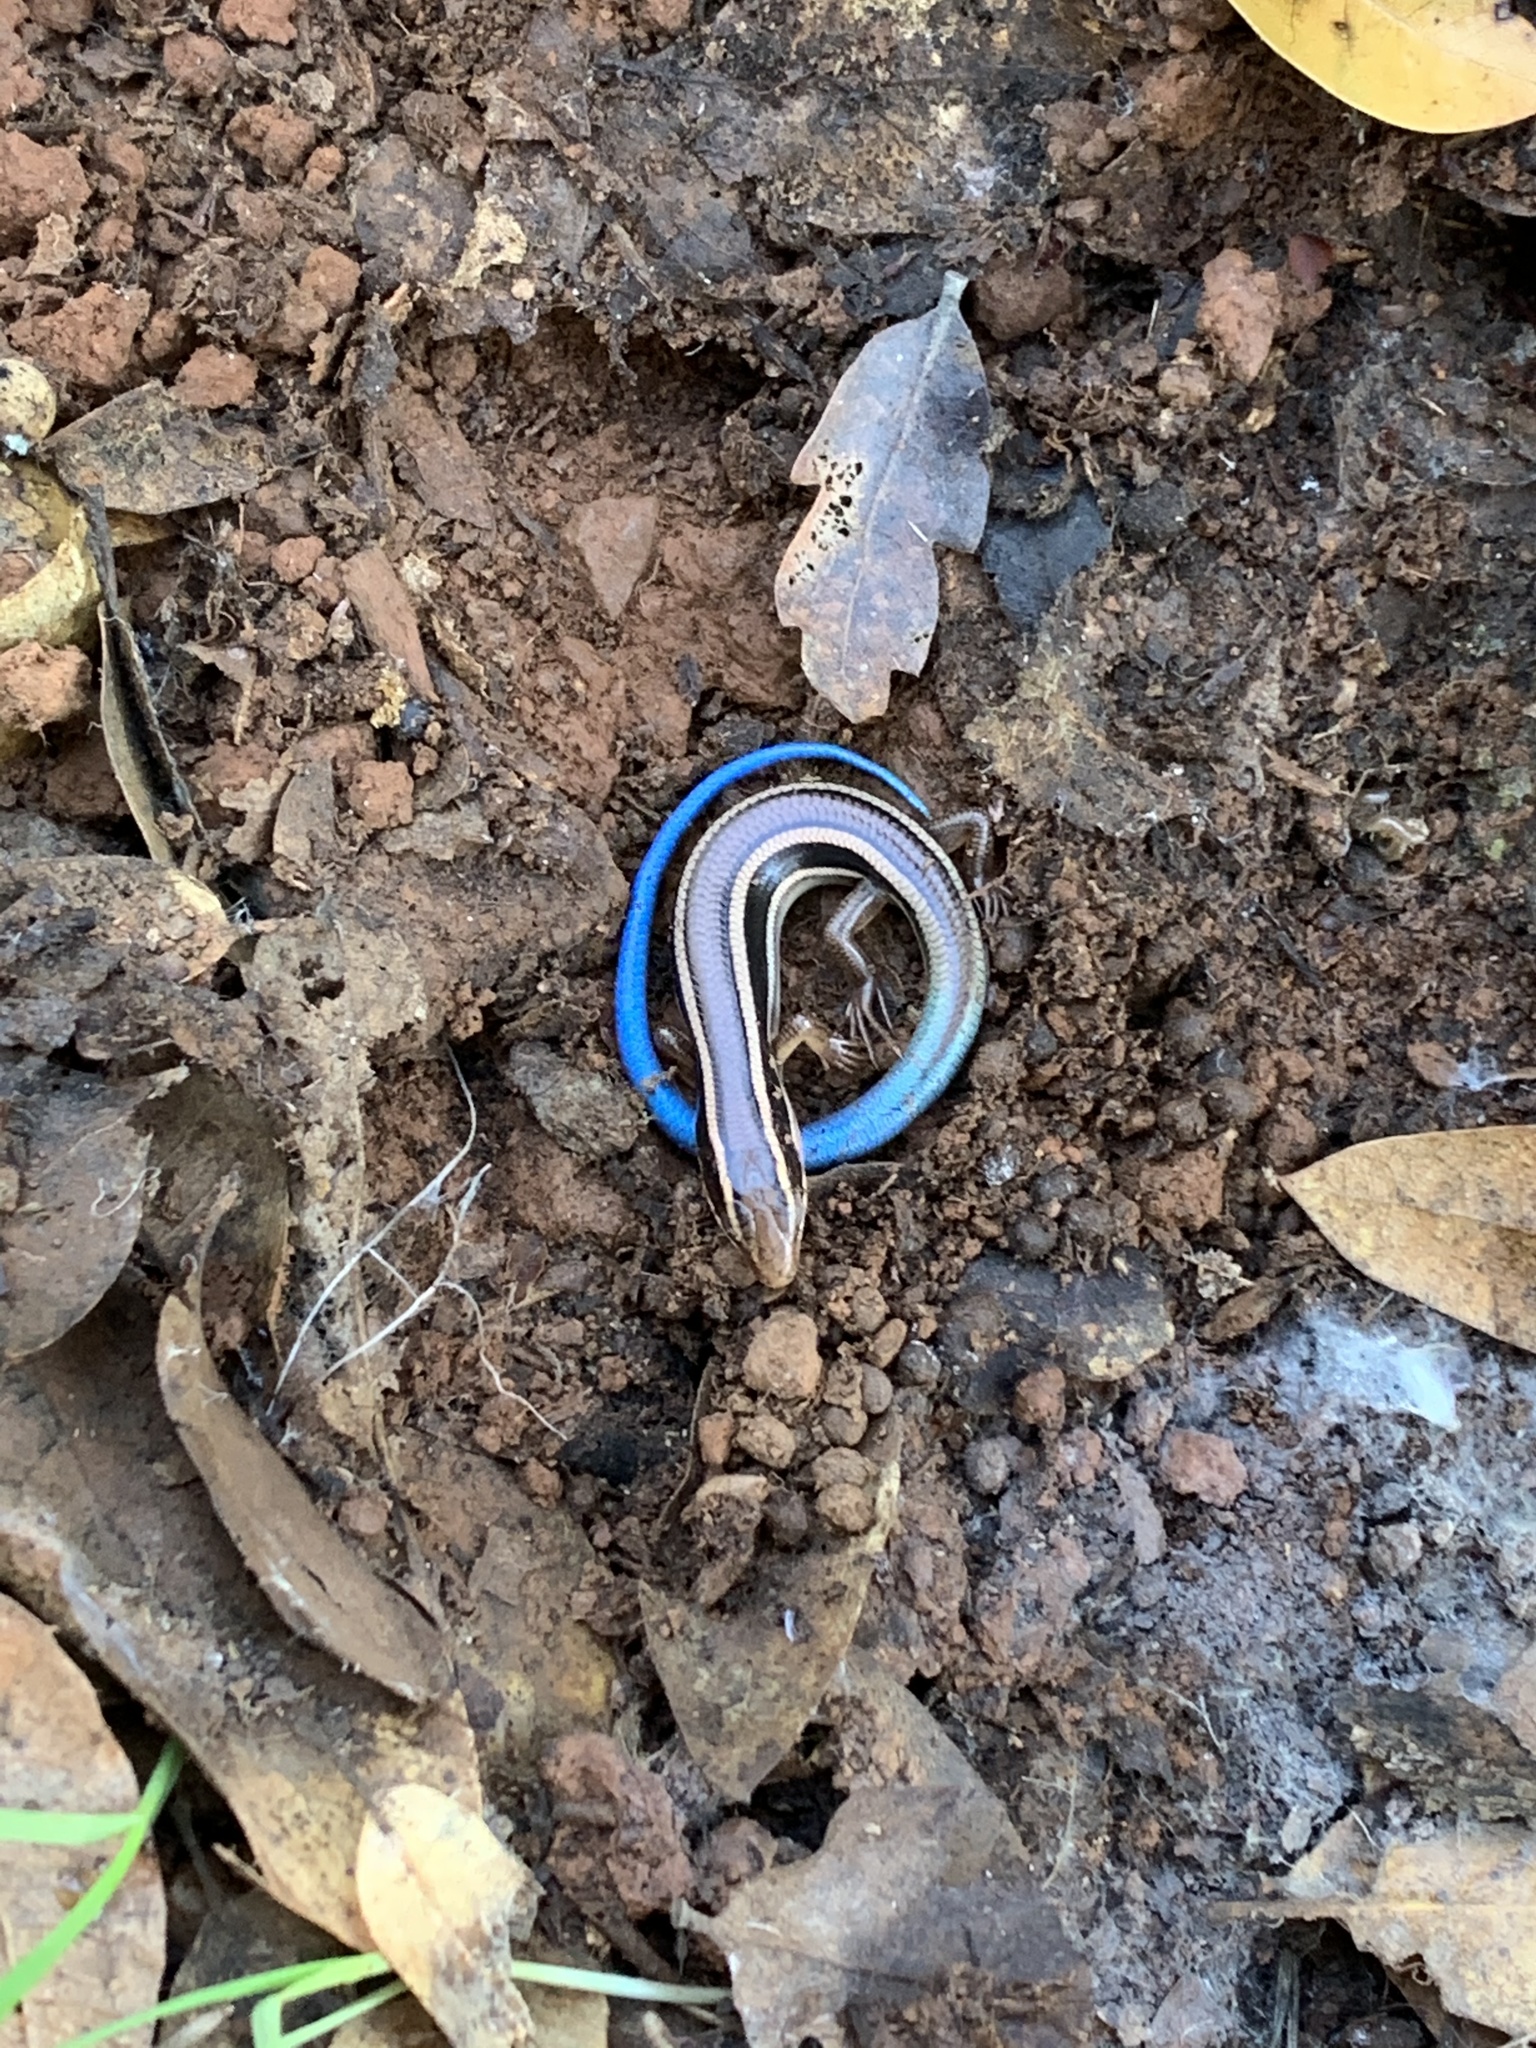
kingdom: Animalia
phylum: Chordata
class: Squamata
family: Scincidae
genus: Plestiodon
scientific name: Plestiodon gilberti
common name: Gilbert's skink
